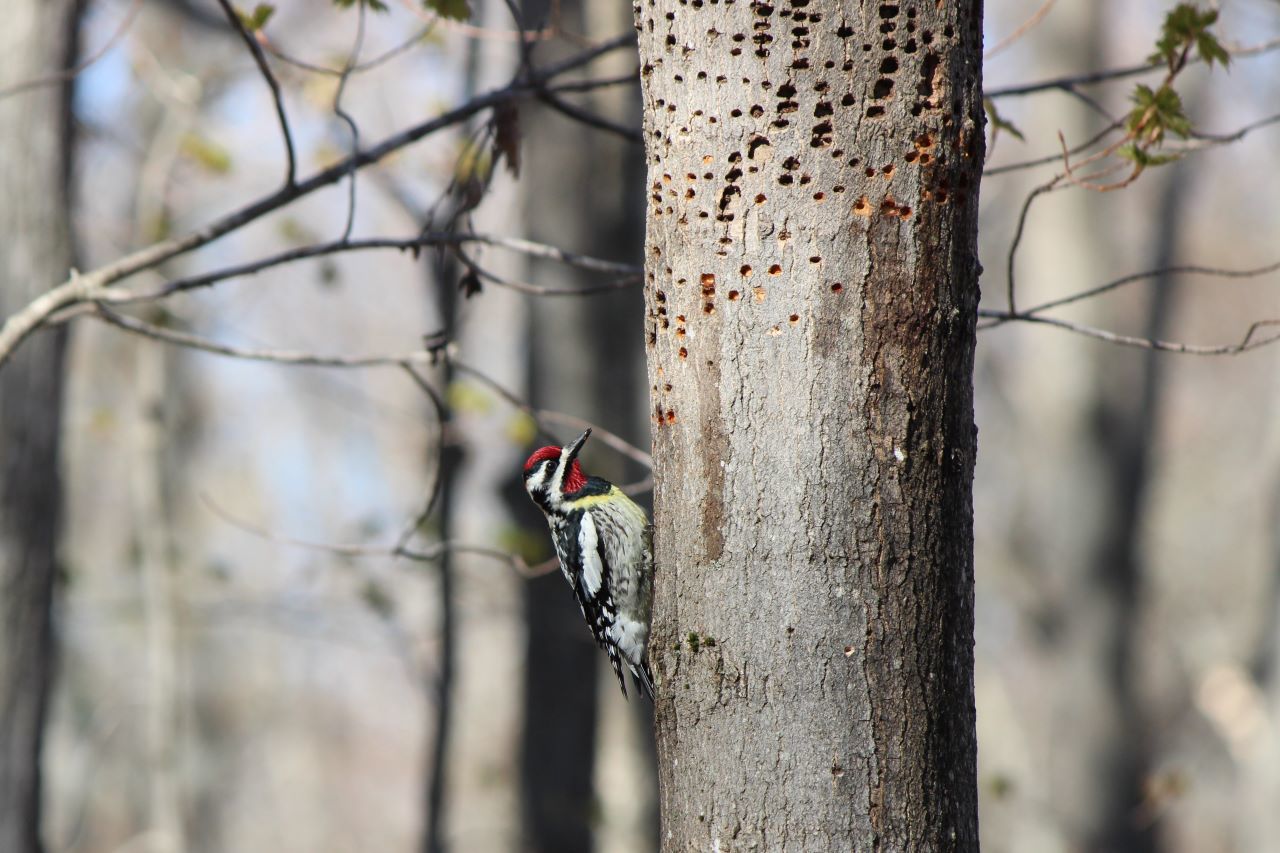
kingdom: Animalia
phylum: Chordata
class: Aves
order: Piciformes
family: Picidae
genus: Sphyrapicus
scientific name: Sphyrapicus varius
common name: Yellow-bellied sapsucker
